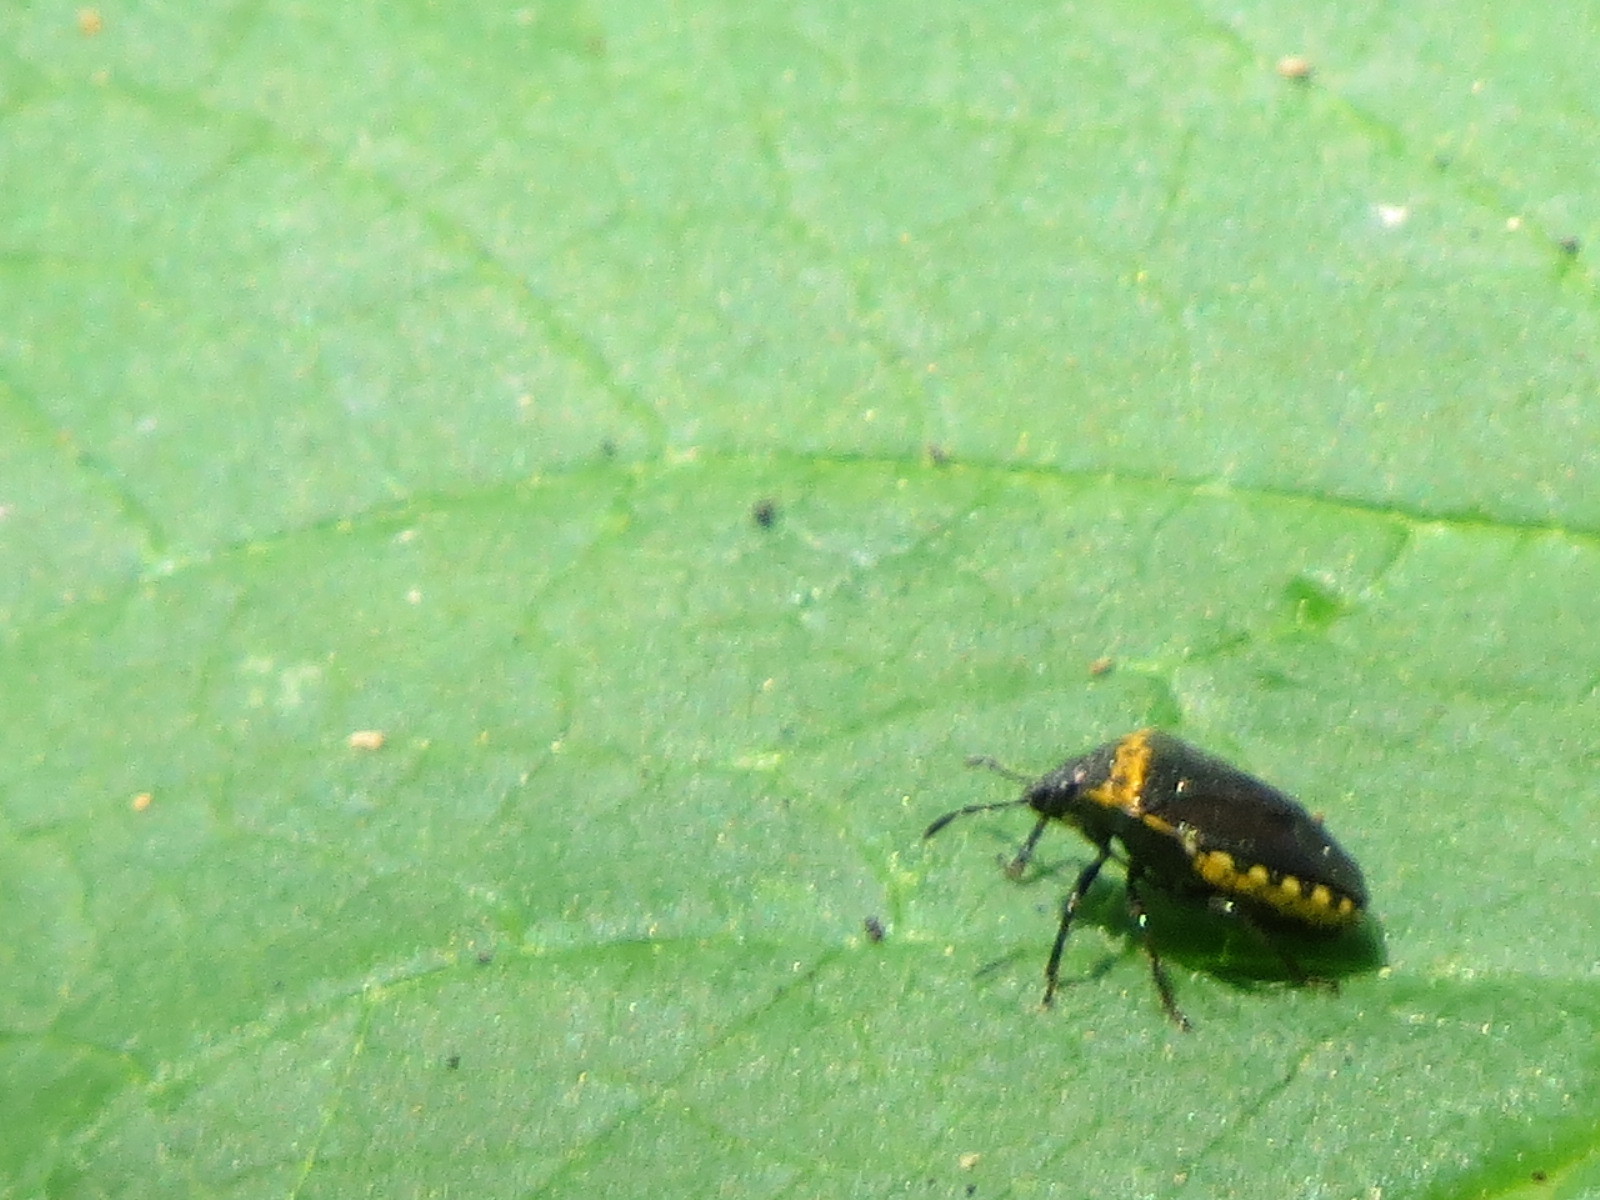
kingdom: Animalia
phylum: Arthropoda
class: Insecta
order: Hemiptera
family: Pentatomidae
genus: Cosmopepla
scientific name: Cosmopepla uhleri
